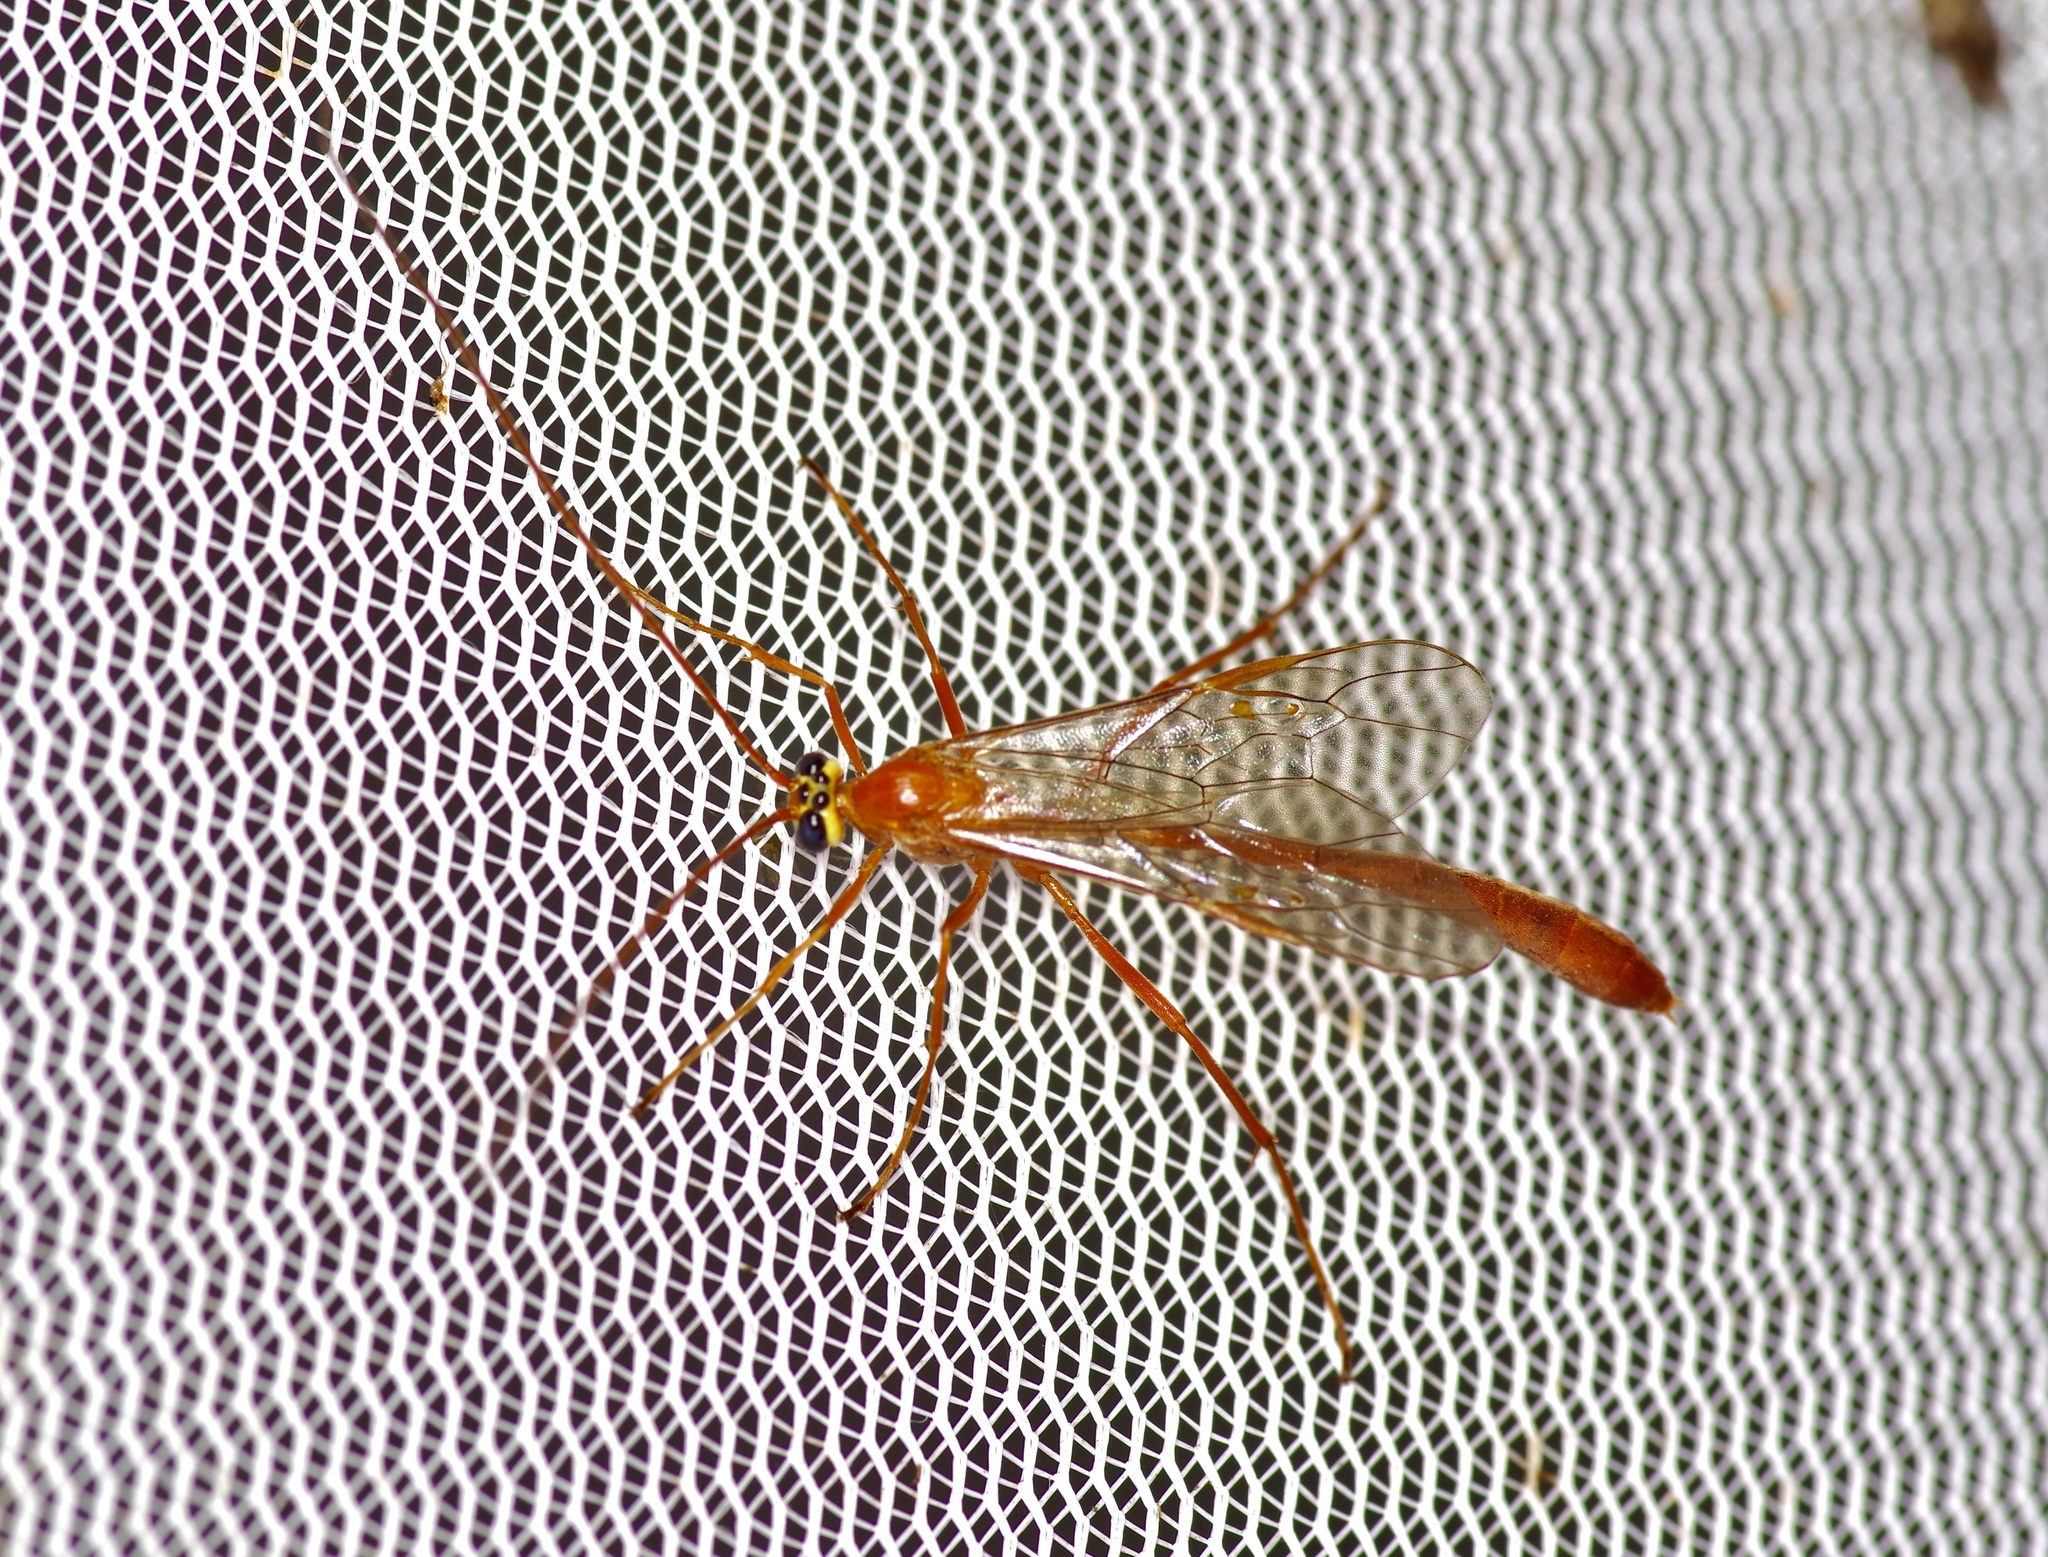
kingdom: Animalia
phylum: Arthropoda
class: Insecta
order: Hymenoptera
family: Ichneumonidae
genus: Enicospilus
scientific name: Enicospilus purgatus
